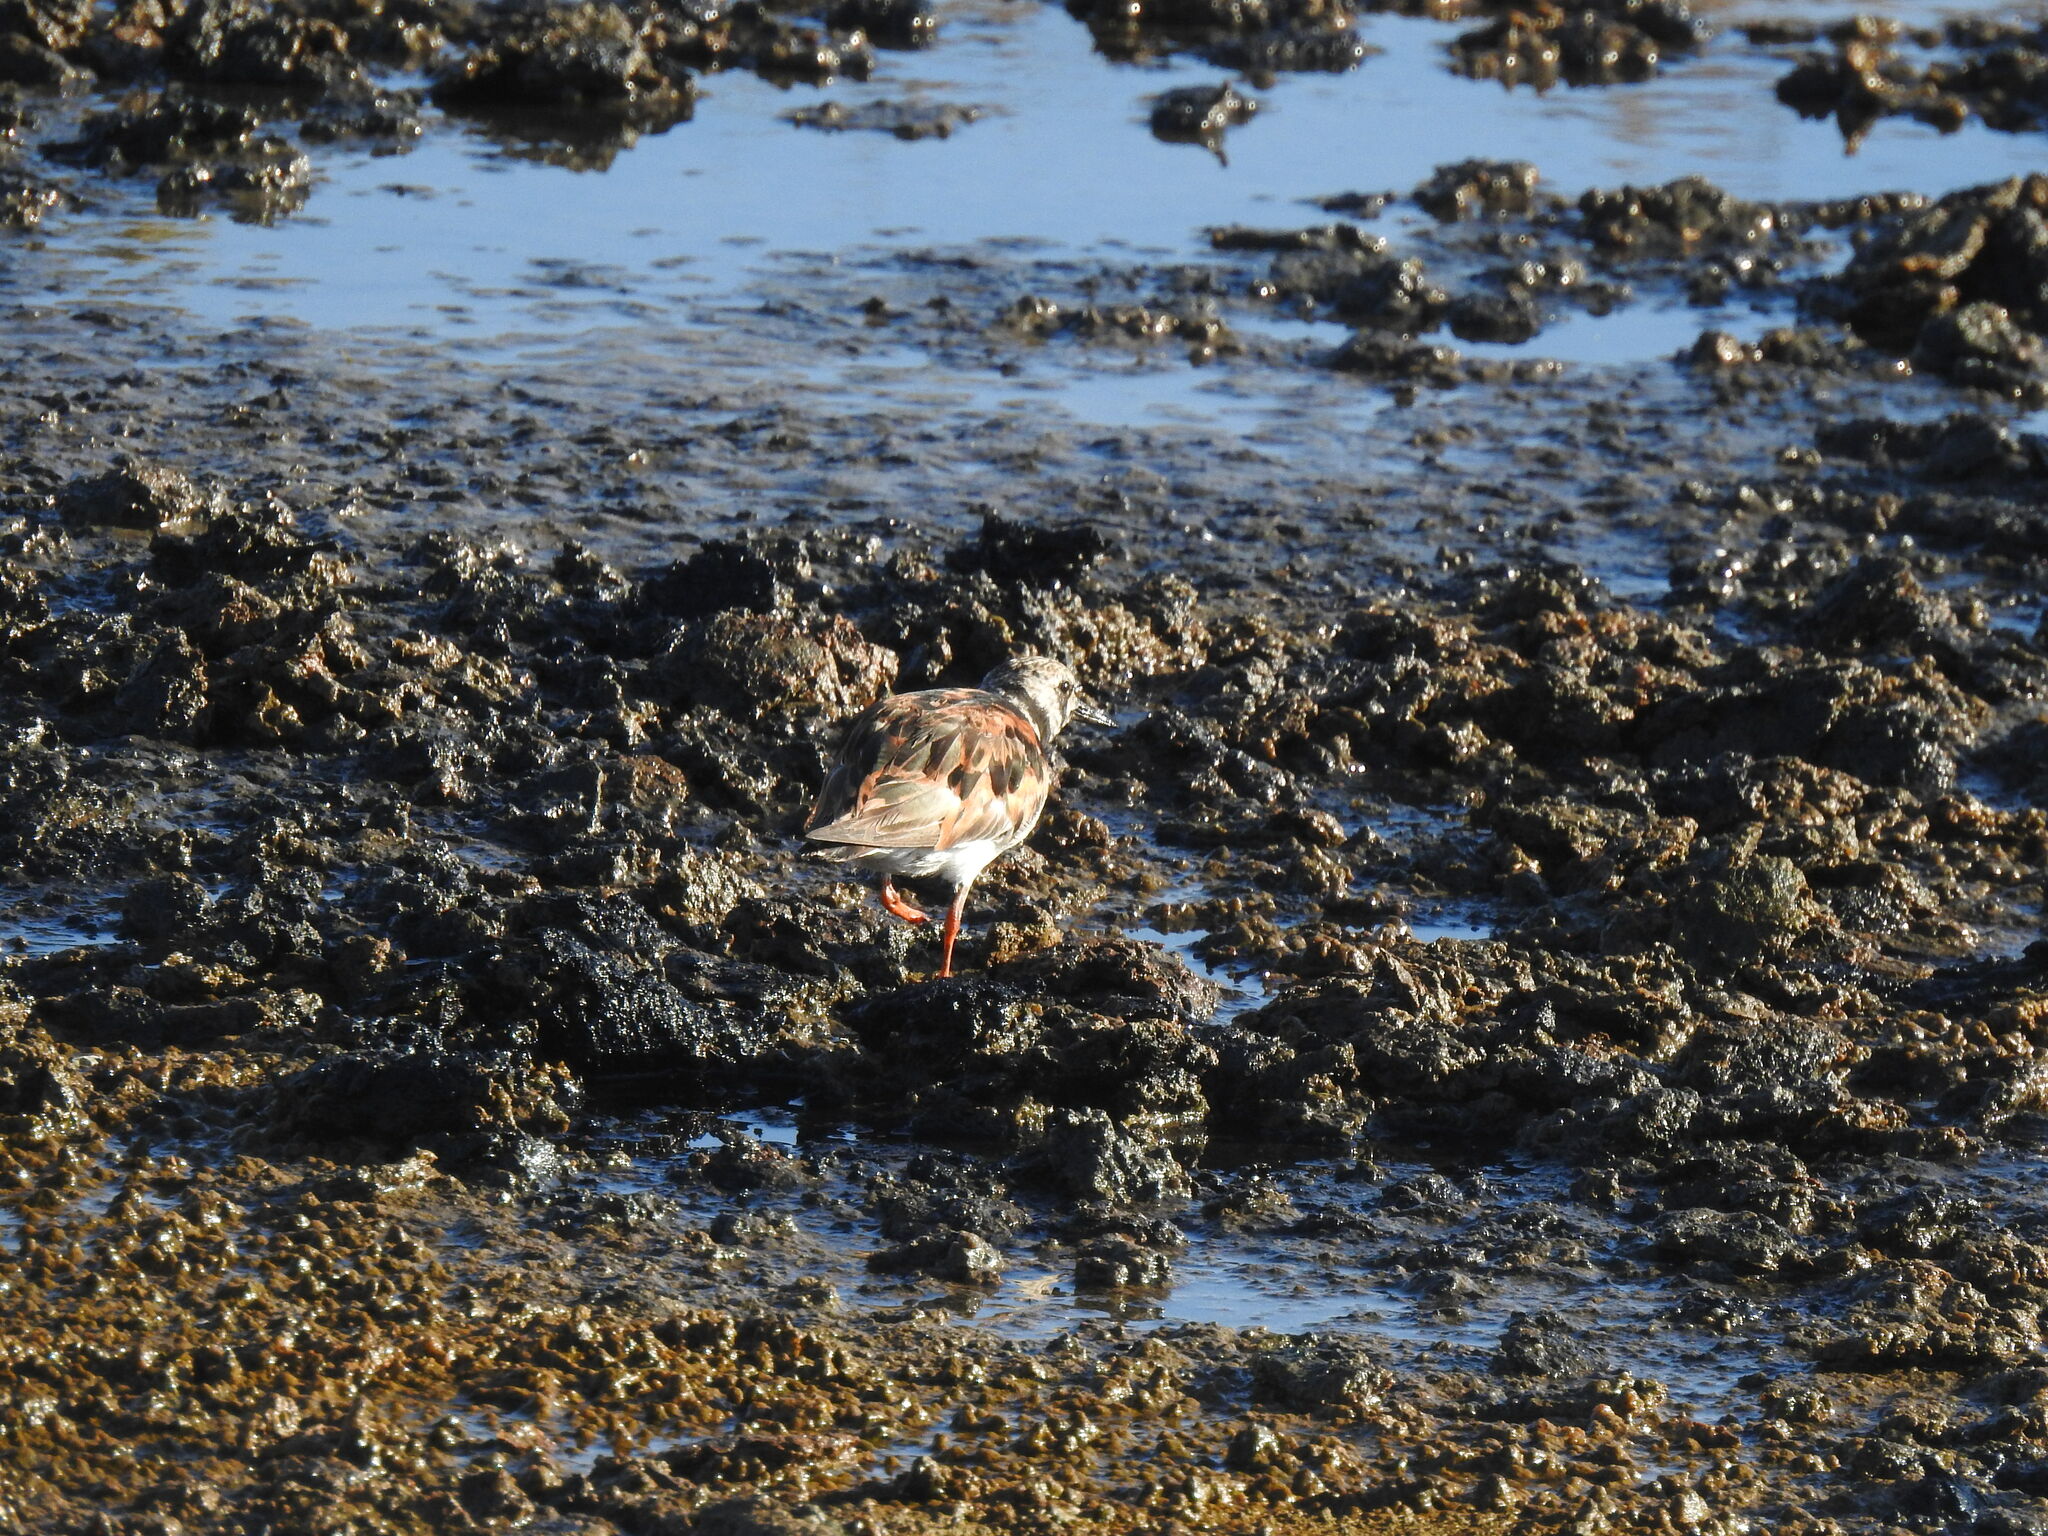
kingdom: Animalia
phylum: Chordata
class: Aves
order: Charadriiformes
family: Scolopacidae
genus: Arenaria
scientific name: Arenaria interpres
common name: Ruddy turnstone
